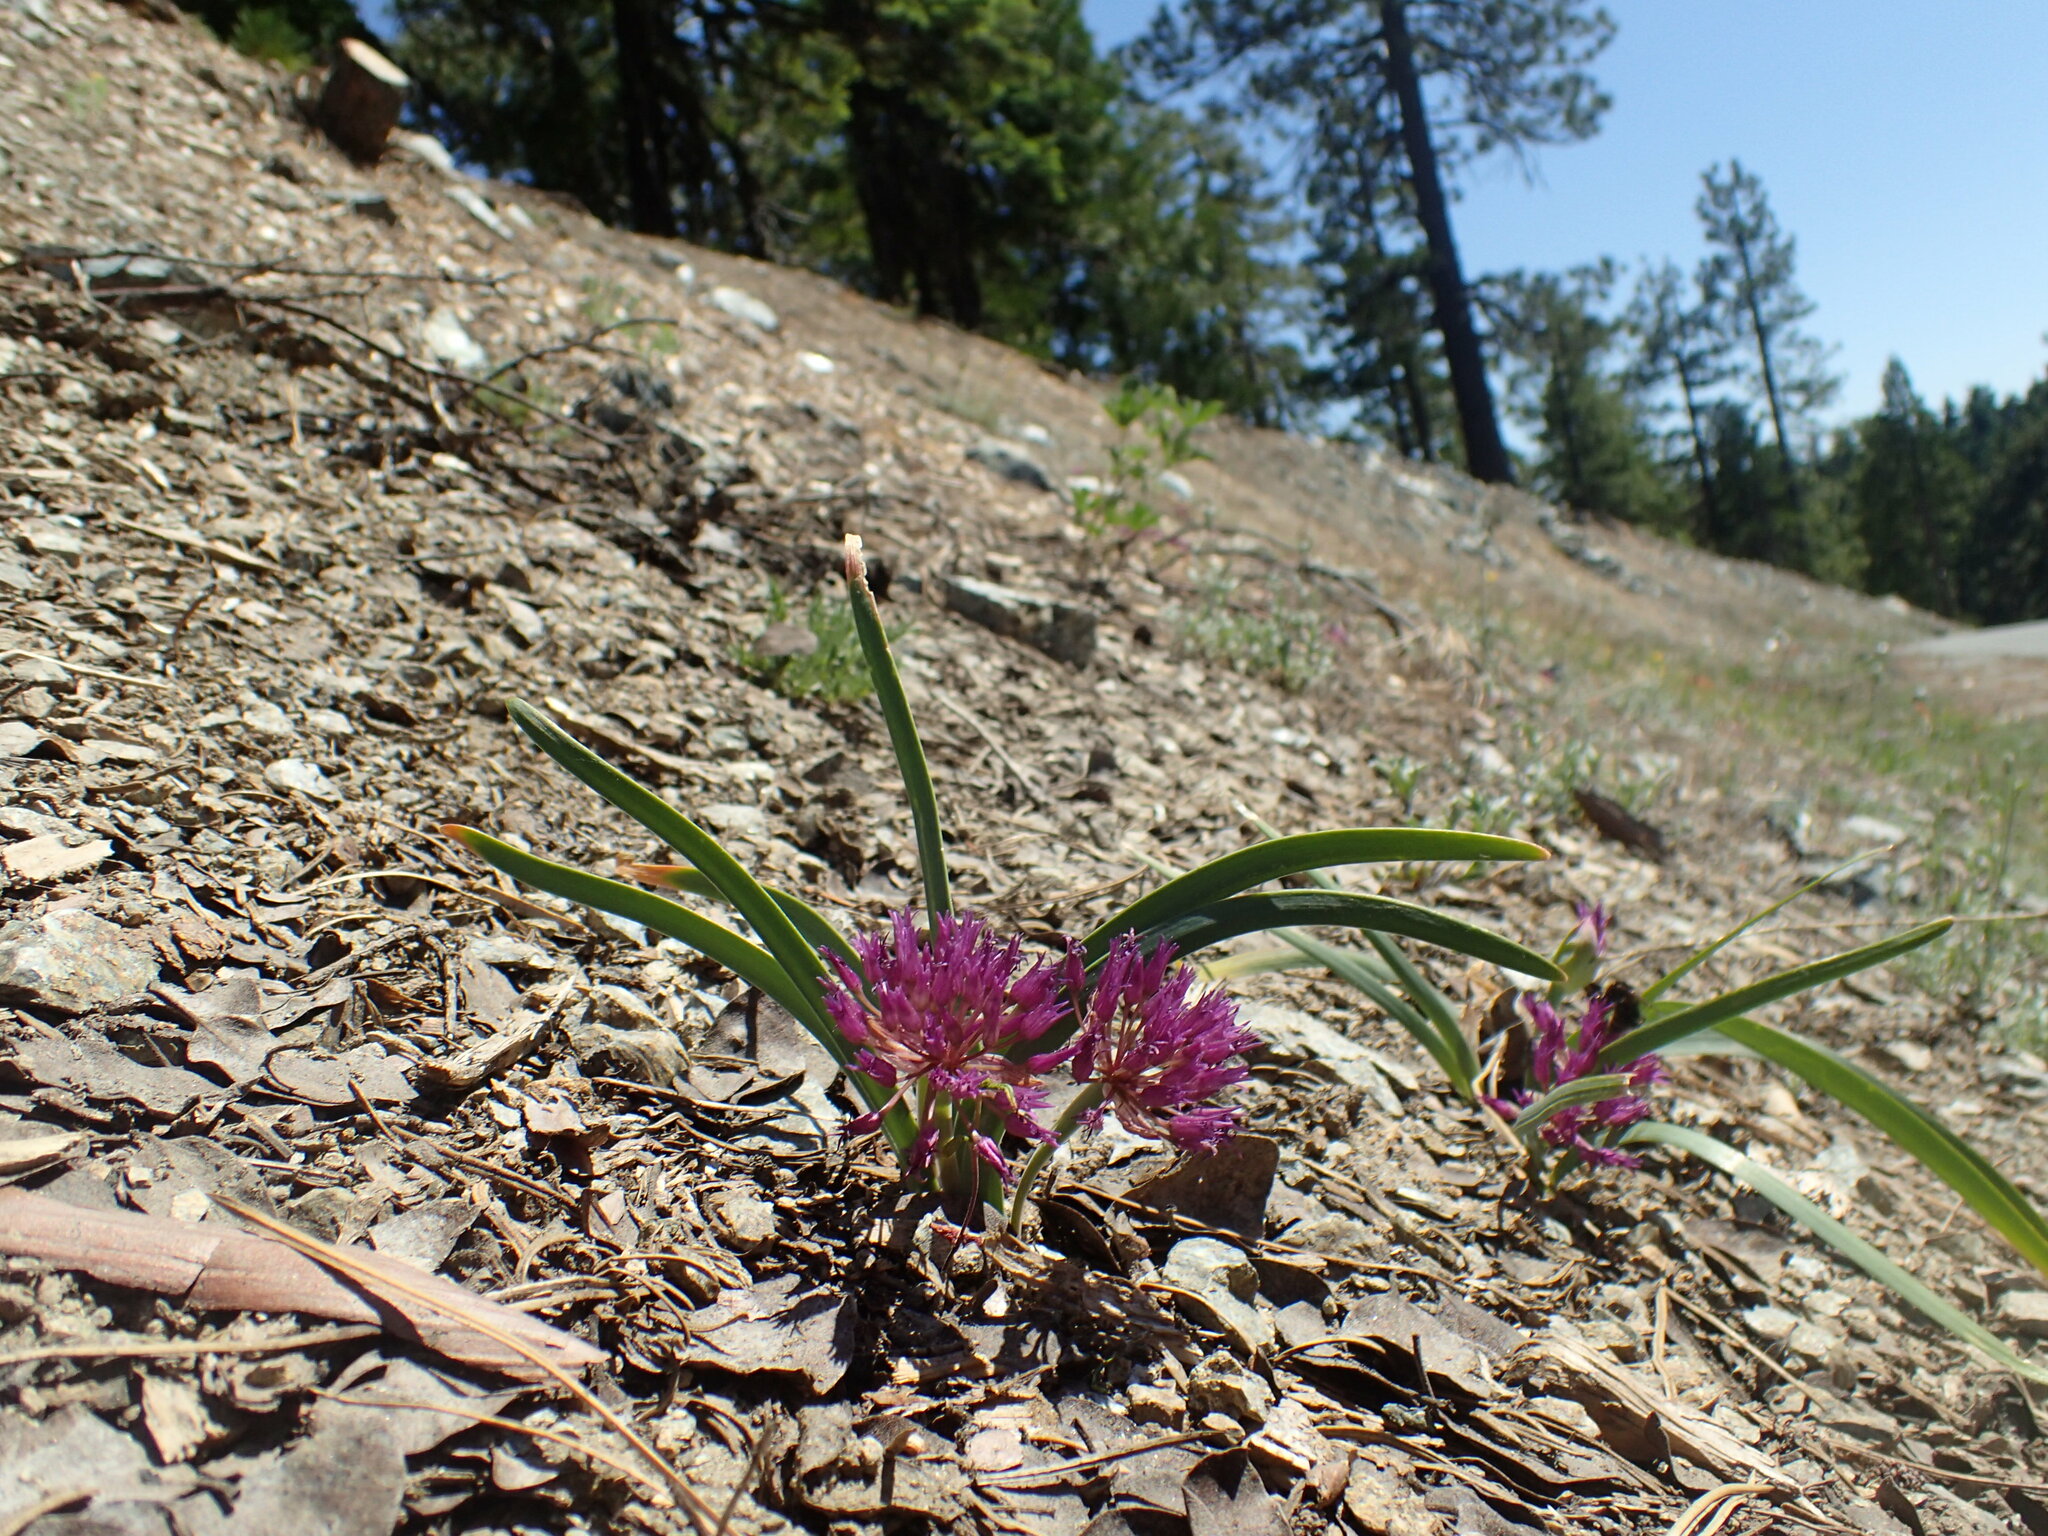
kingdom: Plantae
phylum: Tracheophyta
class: Liliopsida
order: Asparagales
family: Amaryllidaceae
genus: Allium
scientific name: Allium falcifolium
